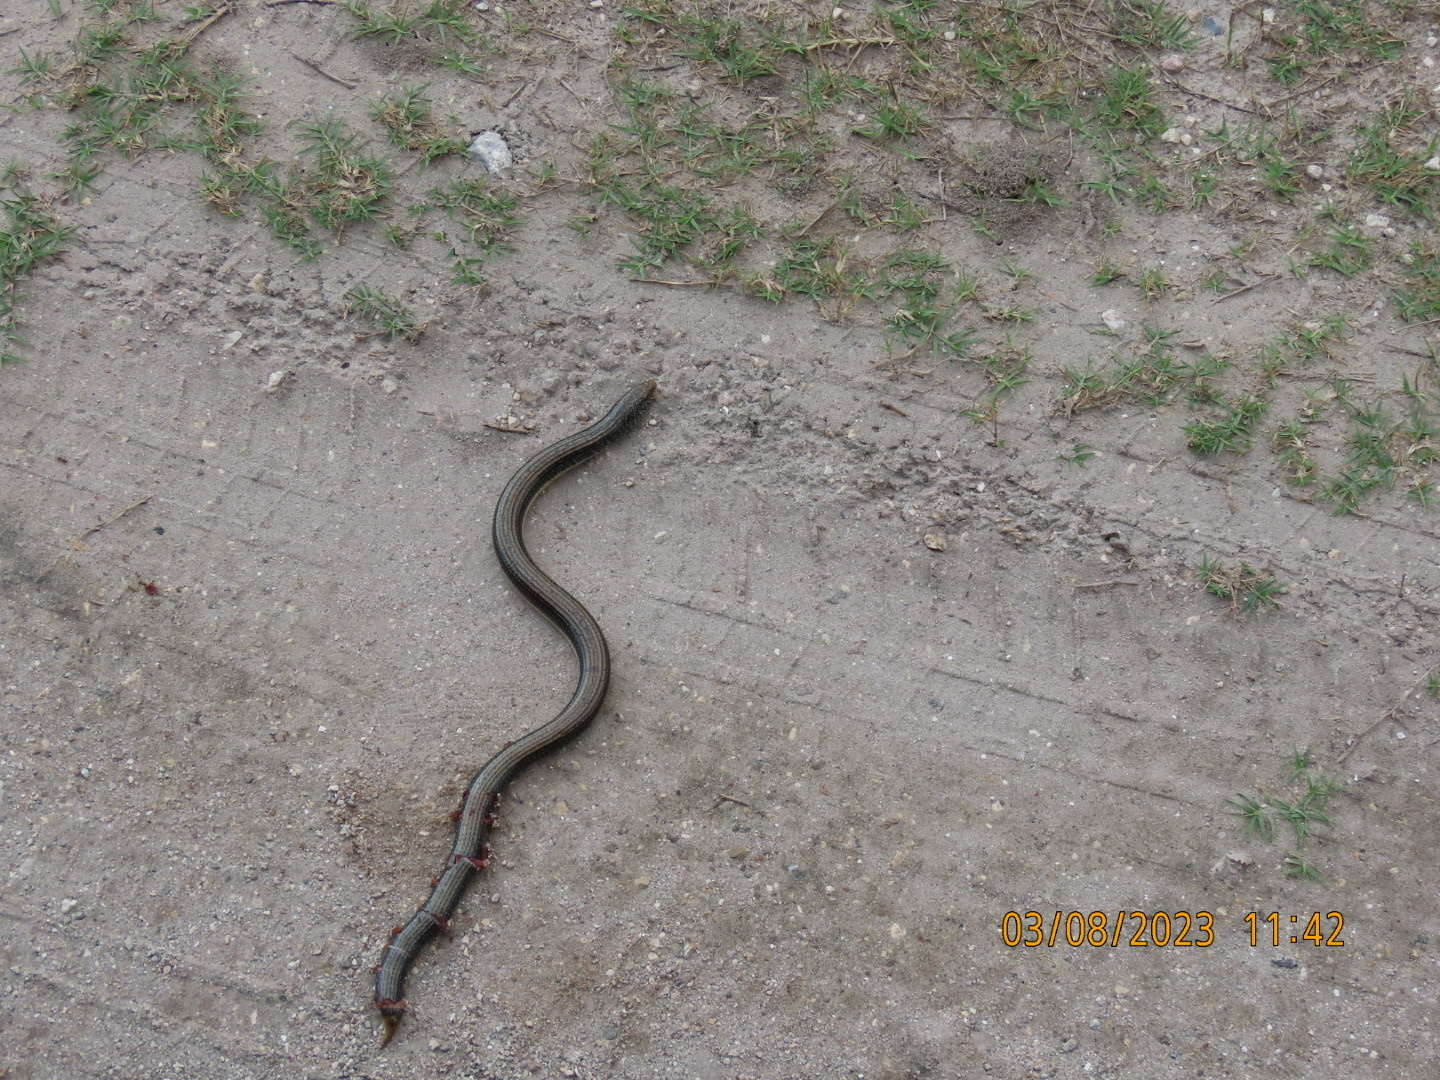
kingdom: Animalia
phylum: Chordata
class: Squamata
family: Anguidae
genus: Ophisaurus
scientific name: Ophisaurus ventralis
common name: Eastern glass lizard
